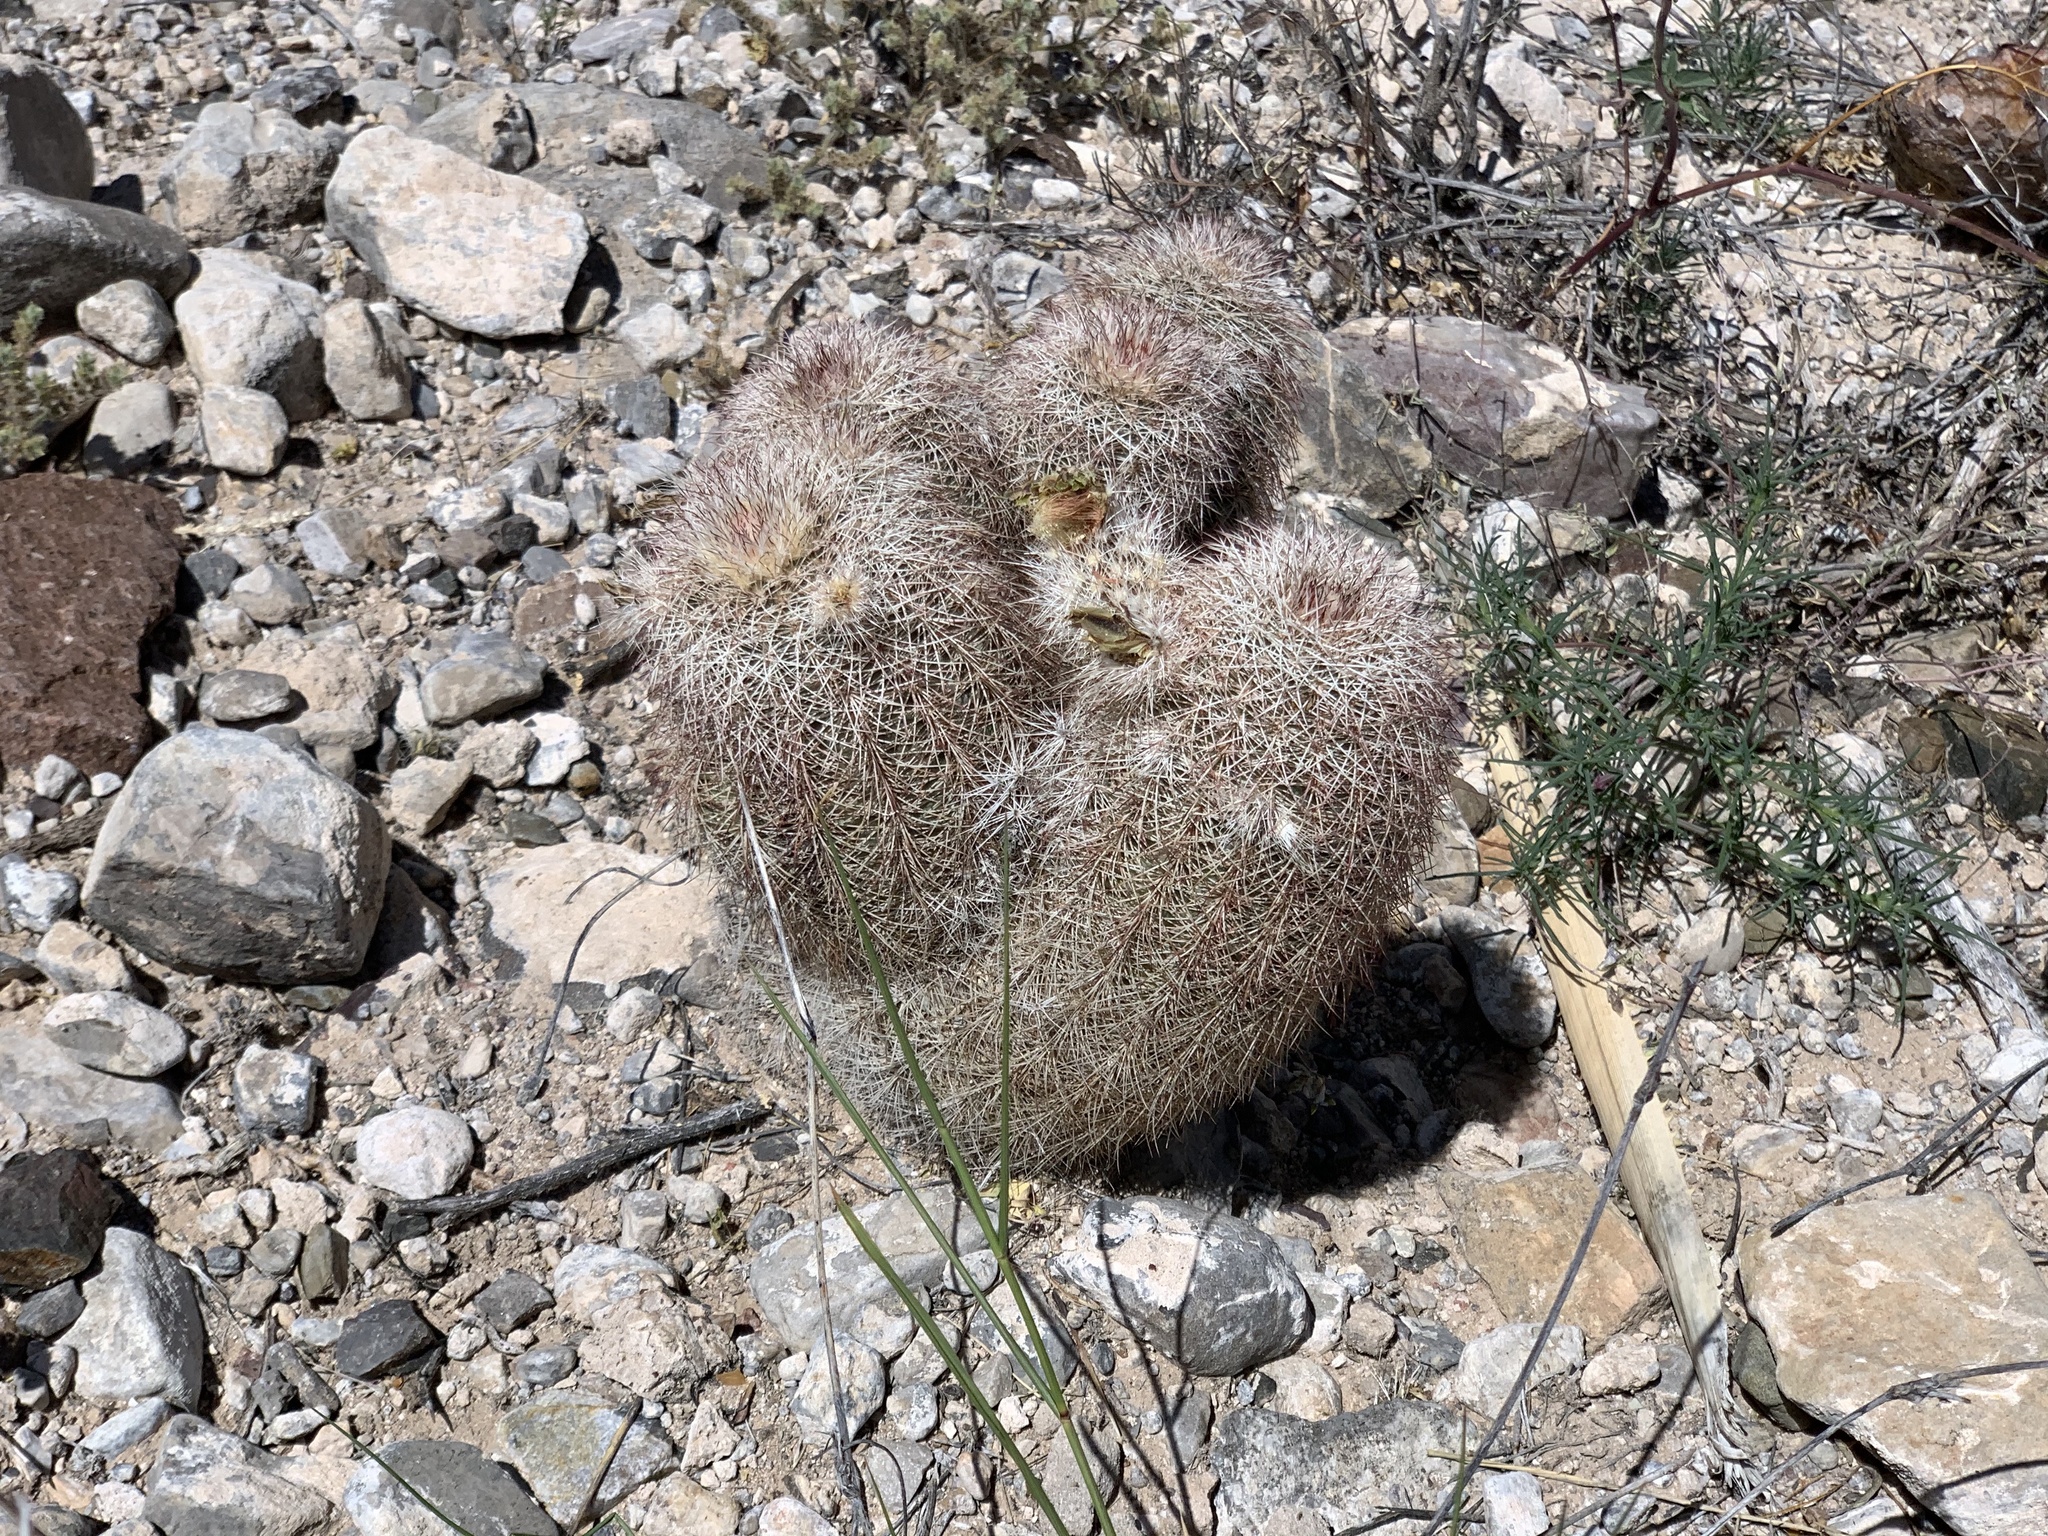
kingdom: Plantae
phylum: Tracheophyta
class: Magnoliopsida
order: Caryophyllales
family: Cactaceae
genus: Echinocereus
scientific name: Echinocereus dasyacanthus
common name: Spiny hedgehog cactus
